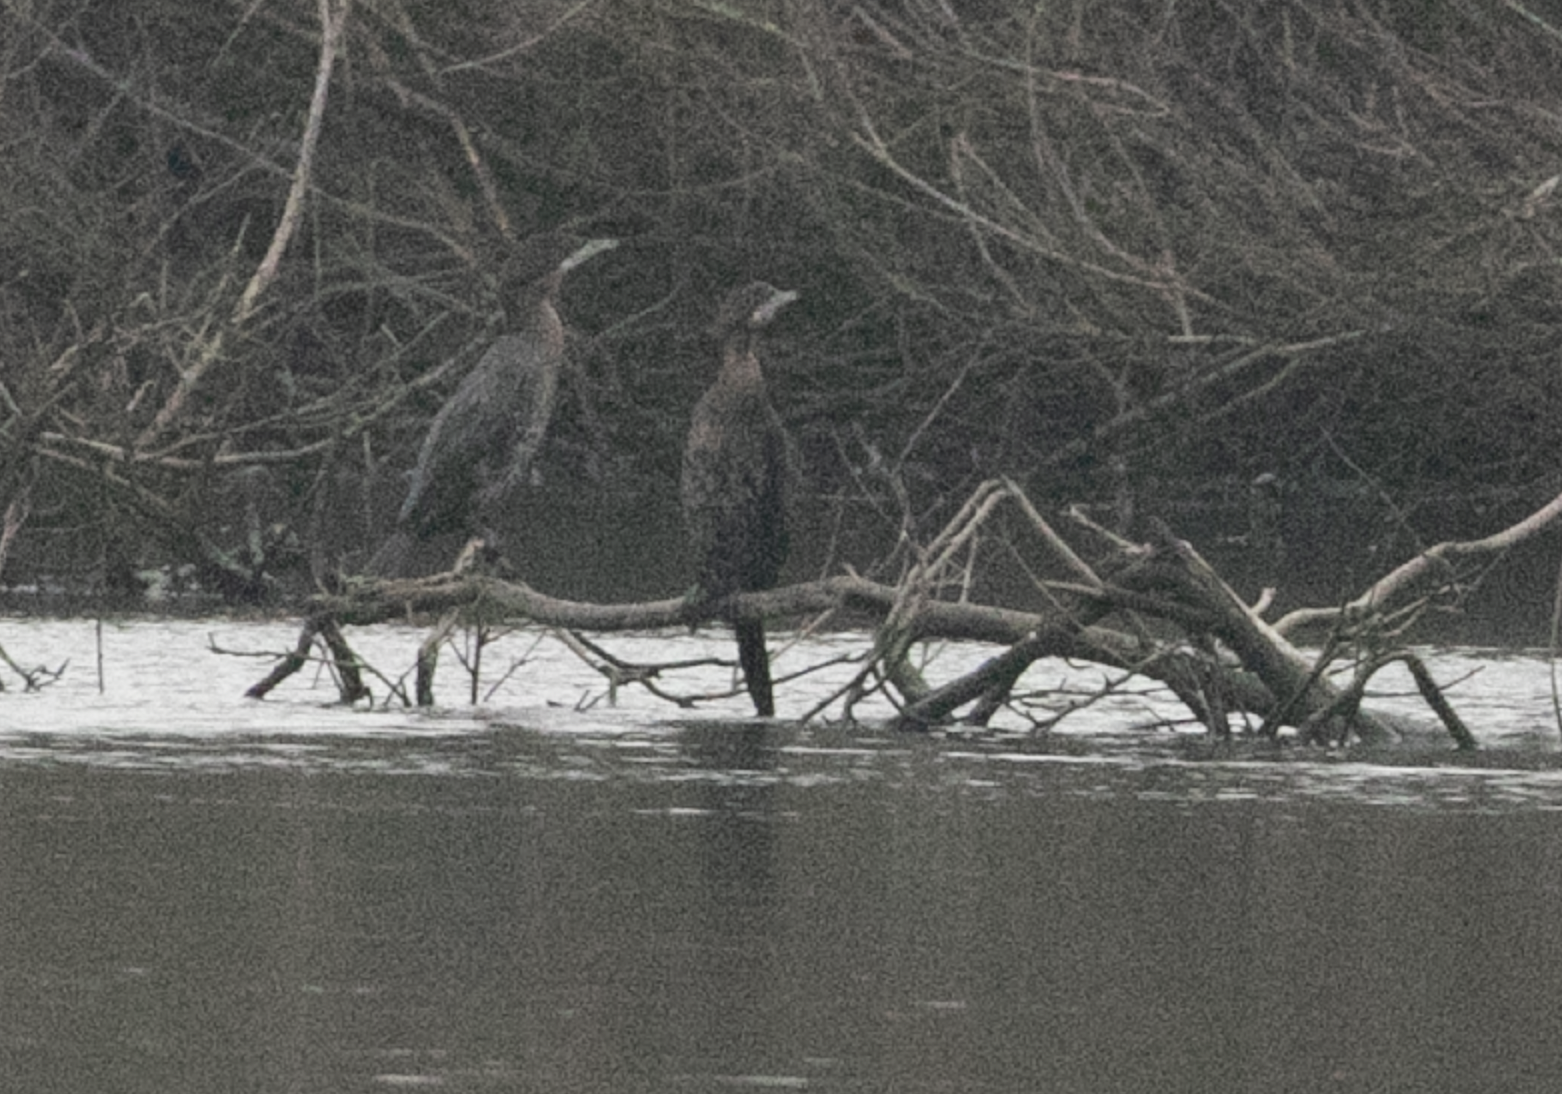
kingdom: Animalia
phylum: Chordata
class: Aves
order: Suliformes
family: Phalacrocoracidae
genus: Microcarbo
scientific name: Microcarbo pygmaeus
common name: Pygmy cormorant
